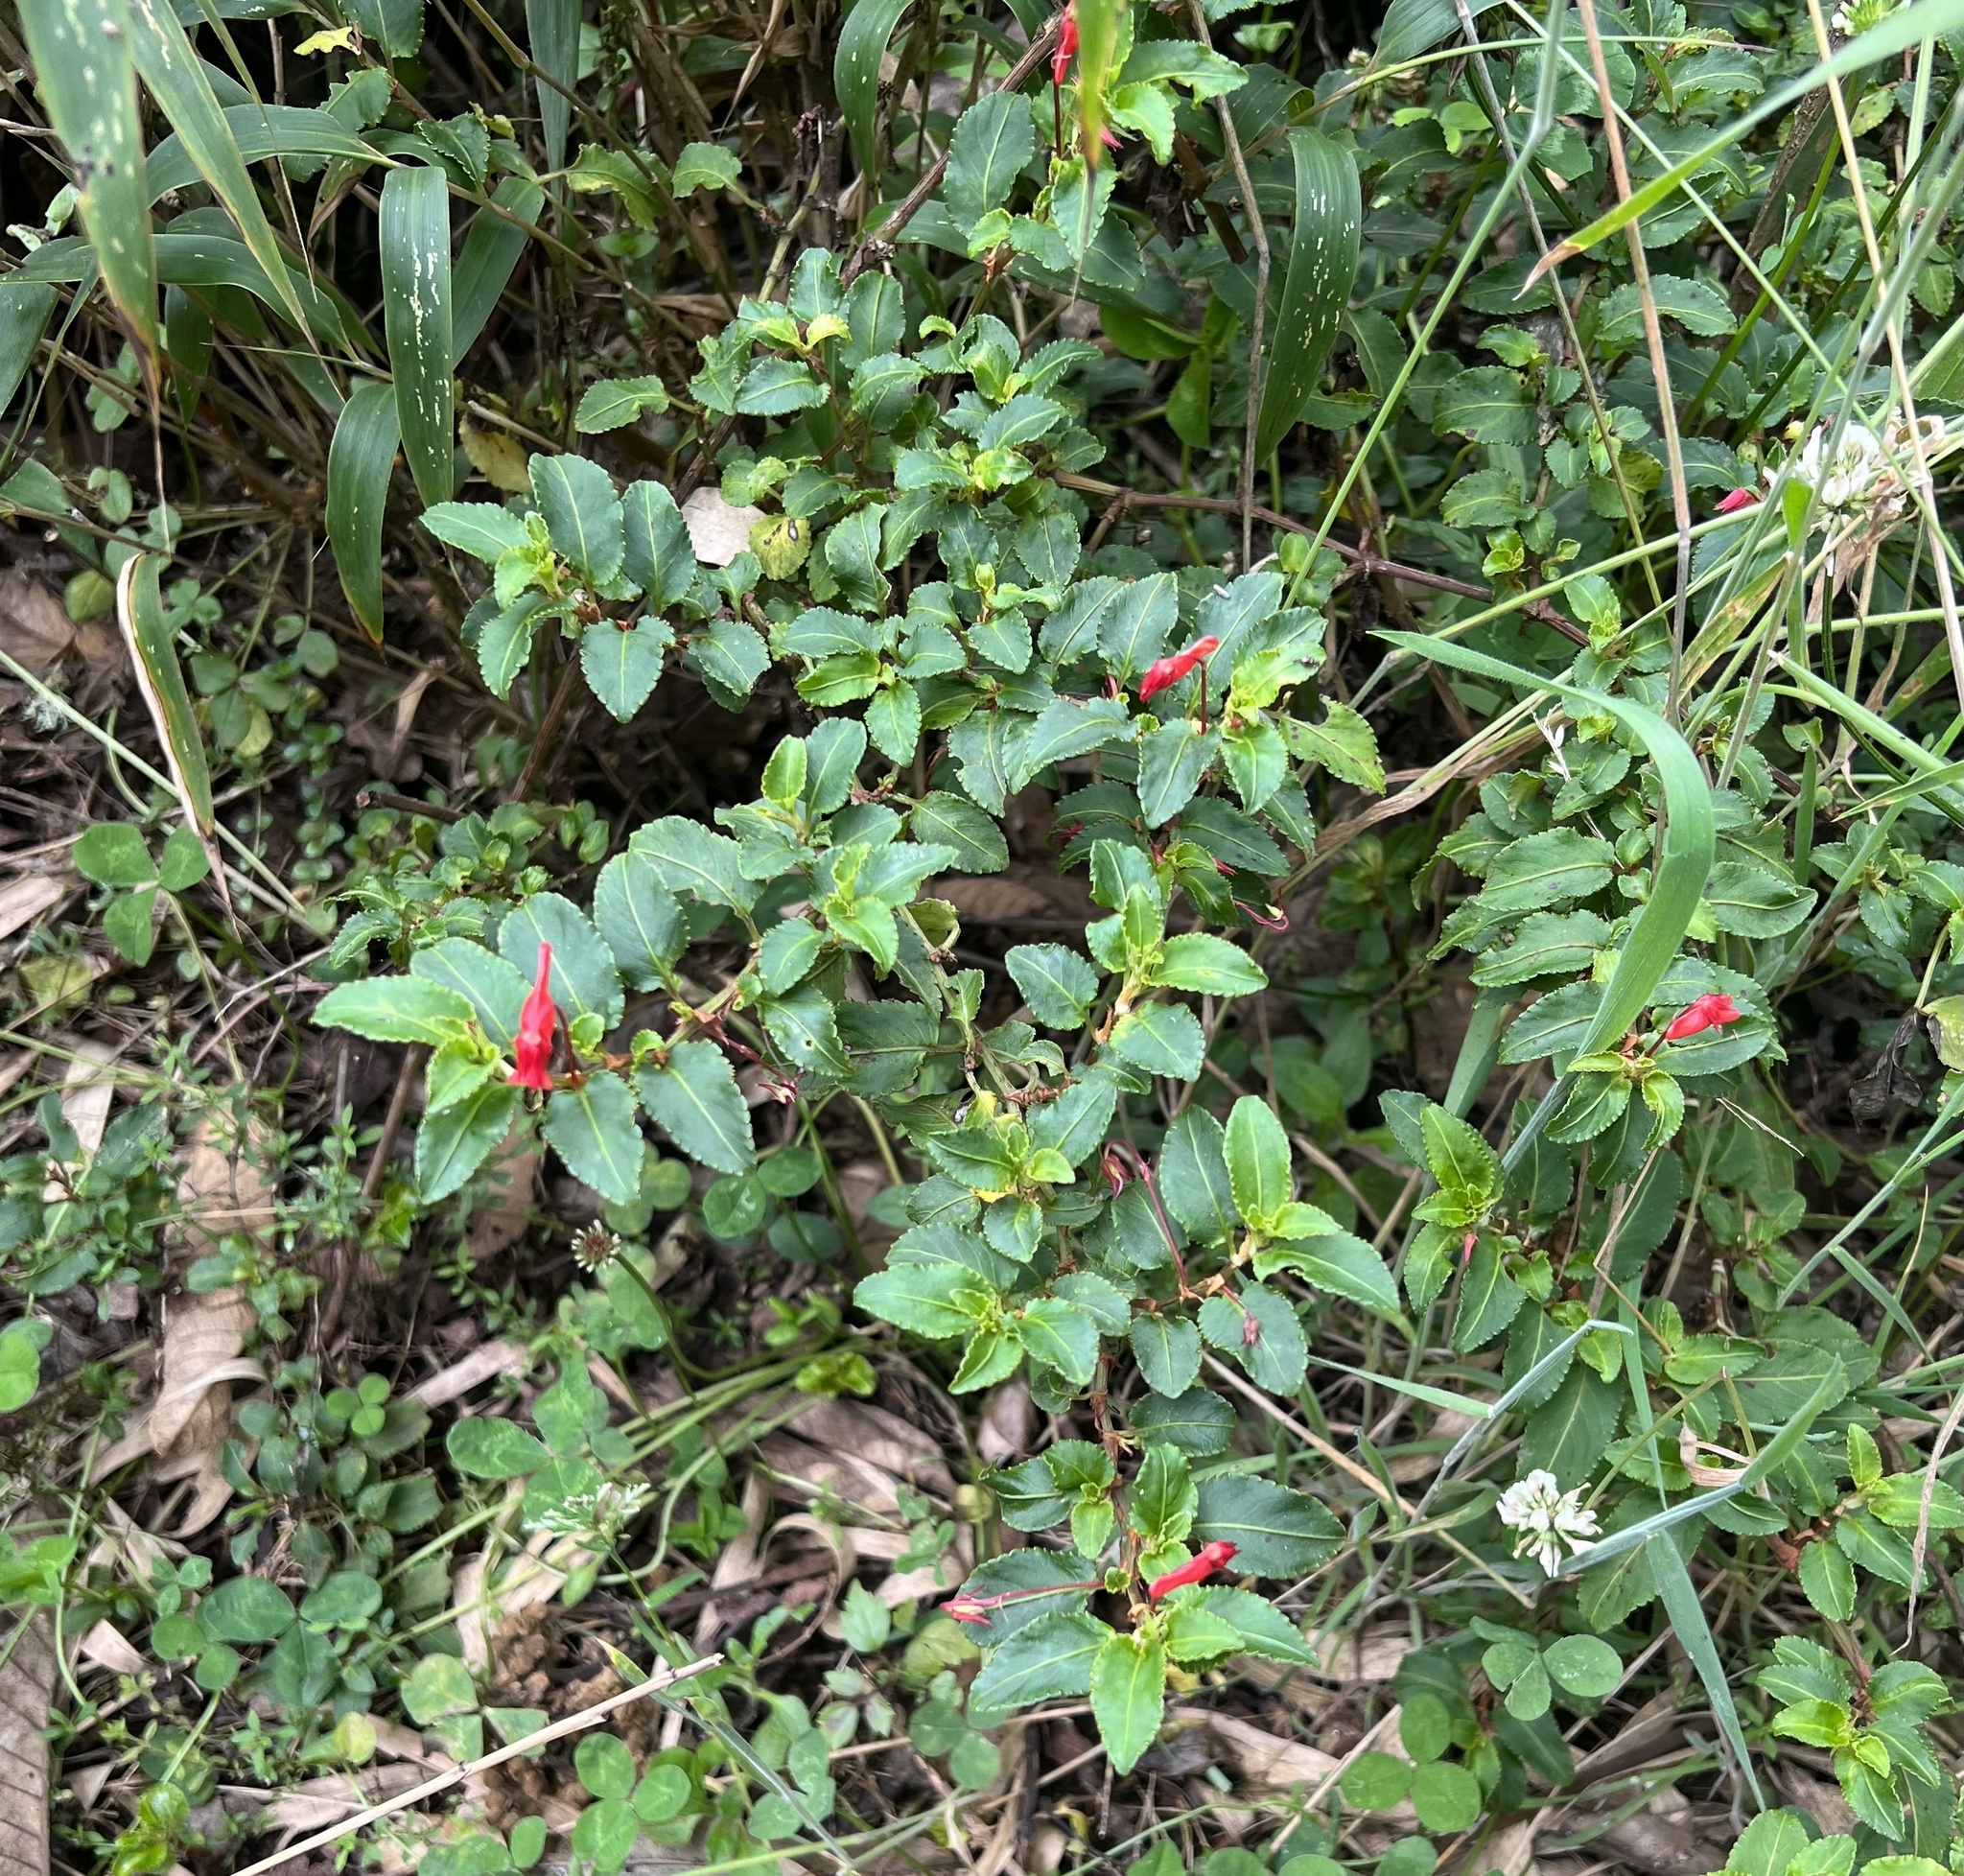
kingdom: Plantae
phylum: Tracheophyta
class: Magnoliopsida
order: Malpighiales
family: Violaceae
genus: Viola
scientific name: Viola arguta
